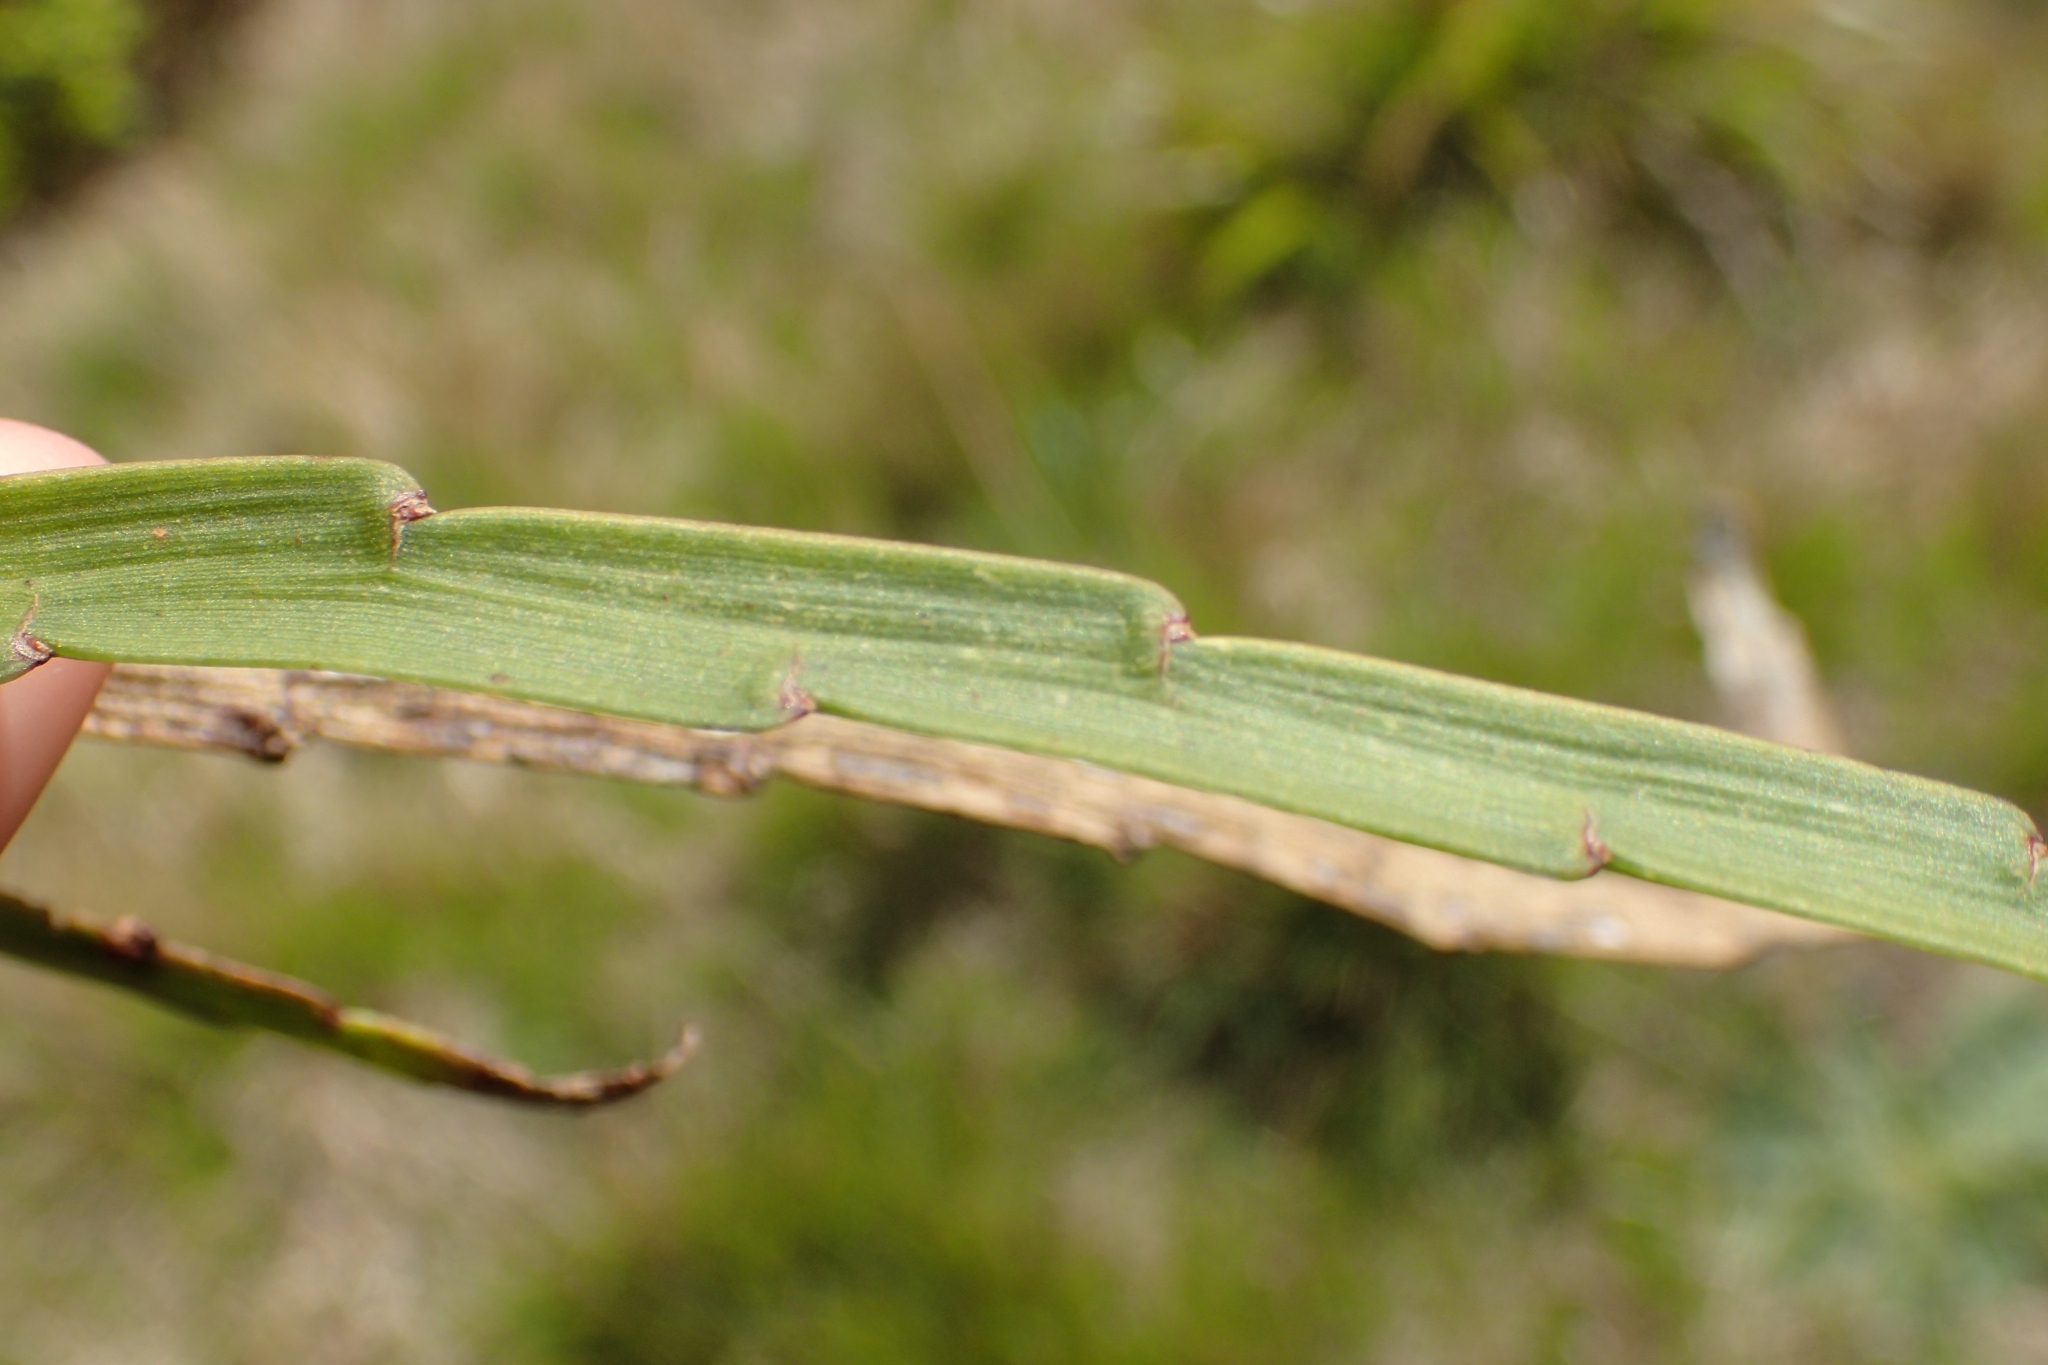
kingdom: Plantae
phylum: Tracheophyta
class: Magnoliopsida
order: Fabales
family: Fabaceae
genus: Carmichaelia
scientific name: Carmichaelia australis
